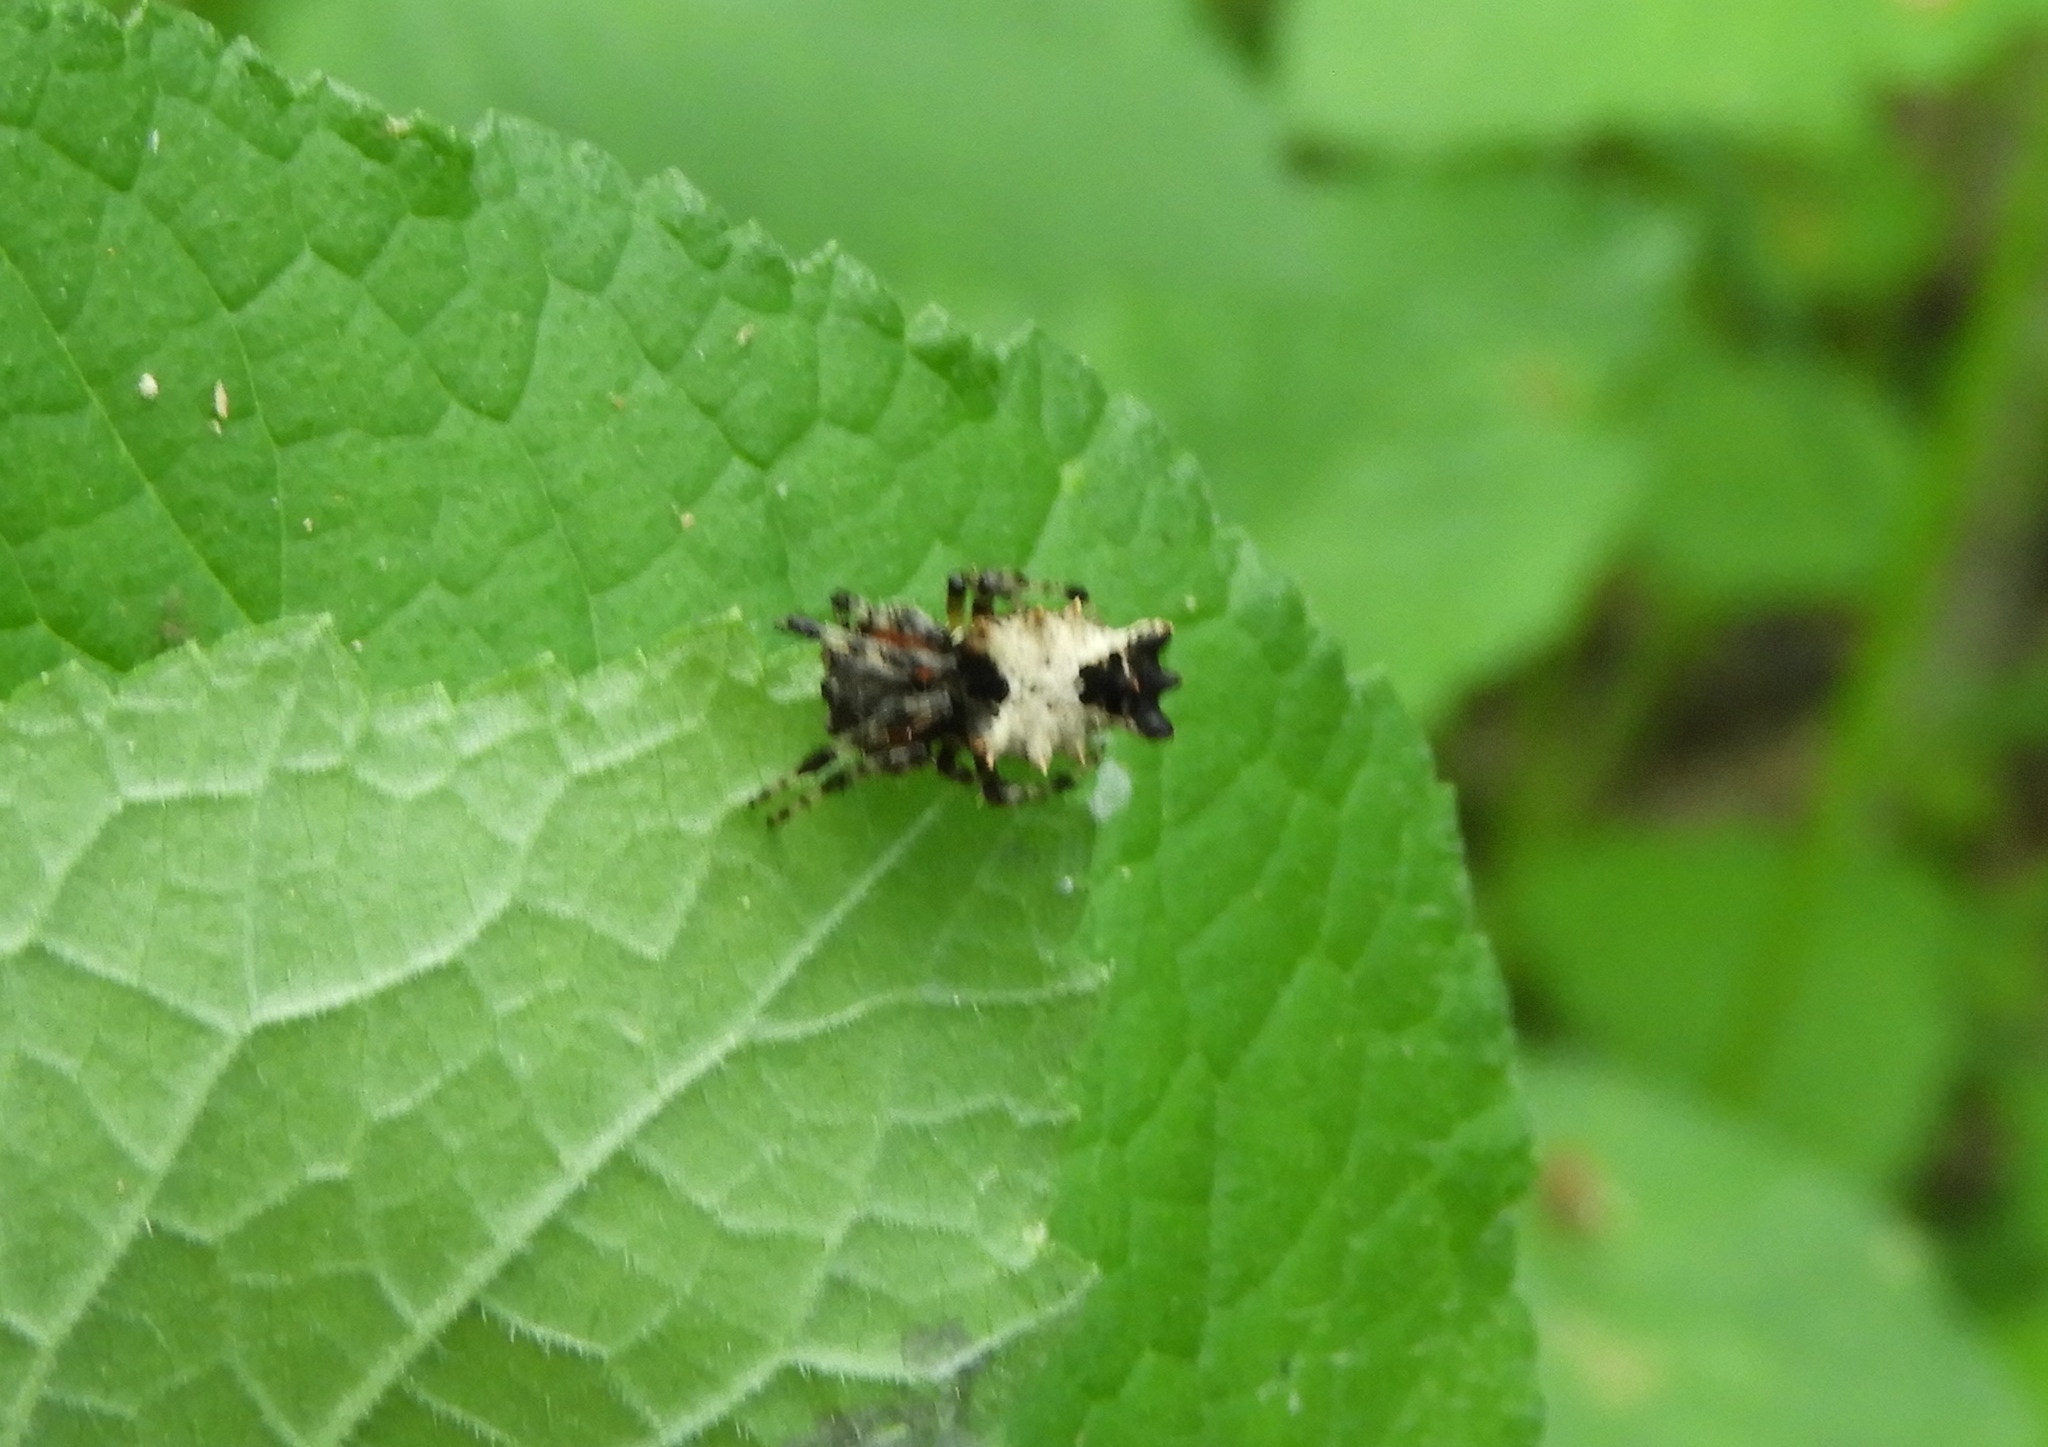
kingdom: Animalia
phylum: Arthropoda
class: Arachnida
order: Araneae
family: Araneidae
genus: Wagneriana
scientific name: Wagneriana
